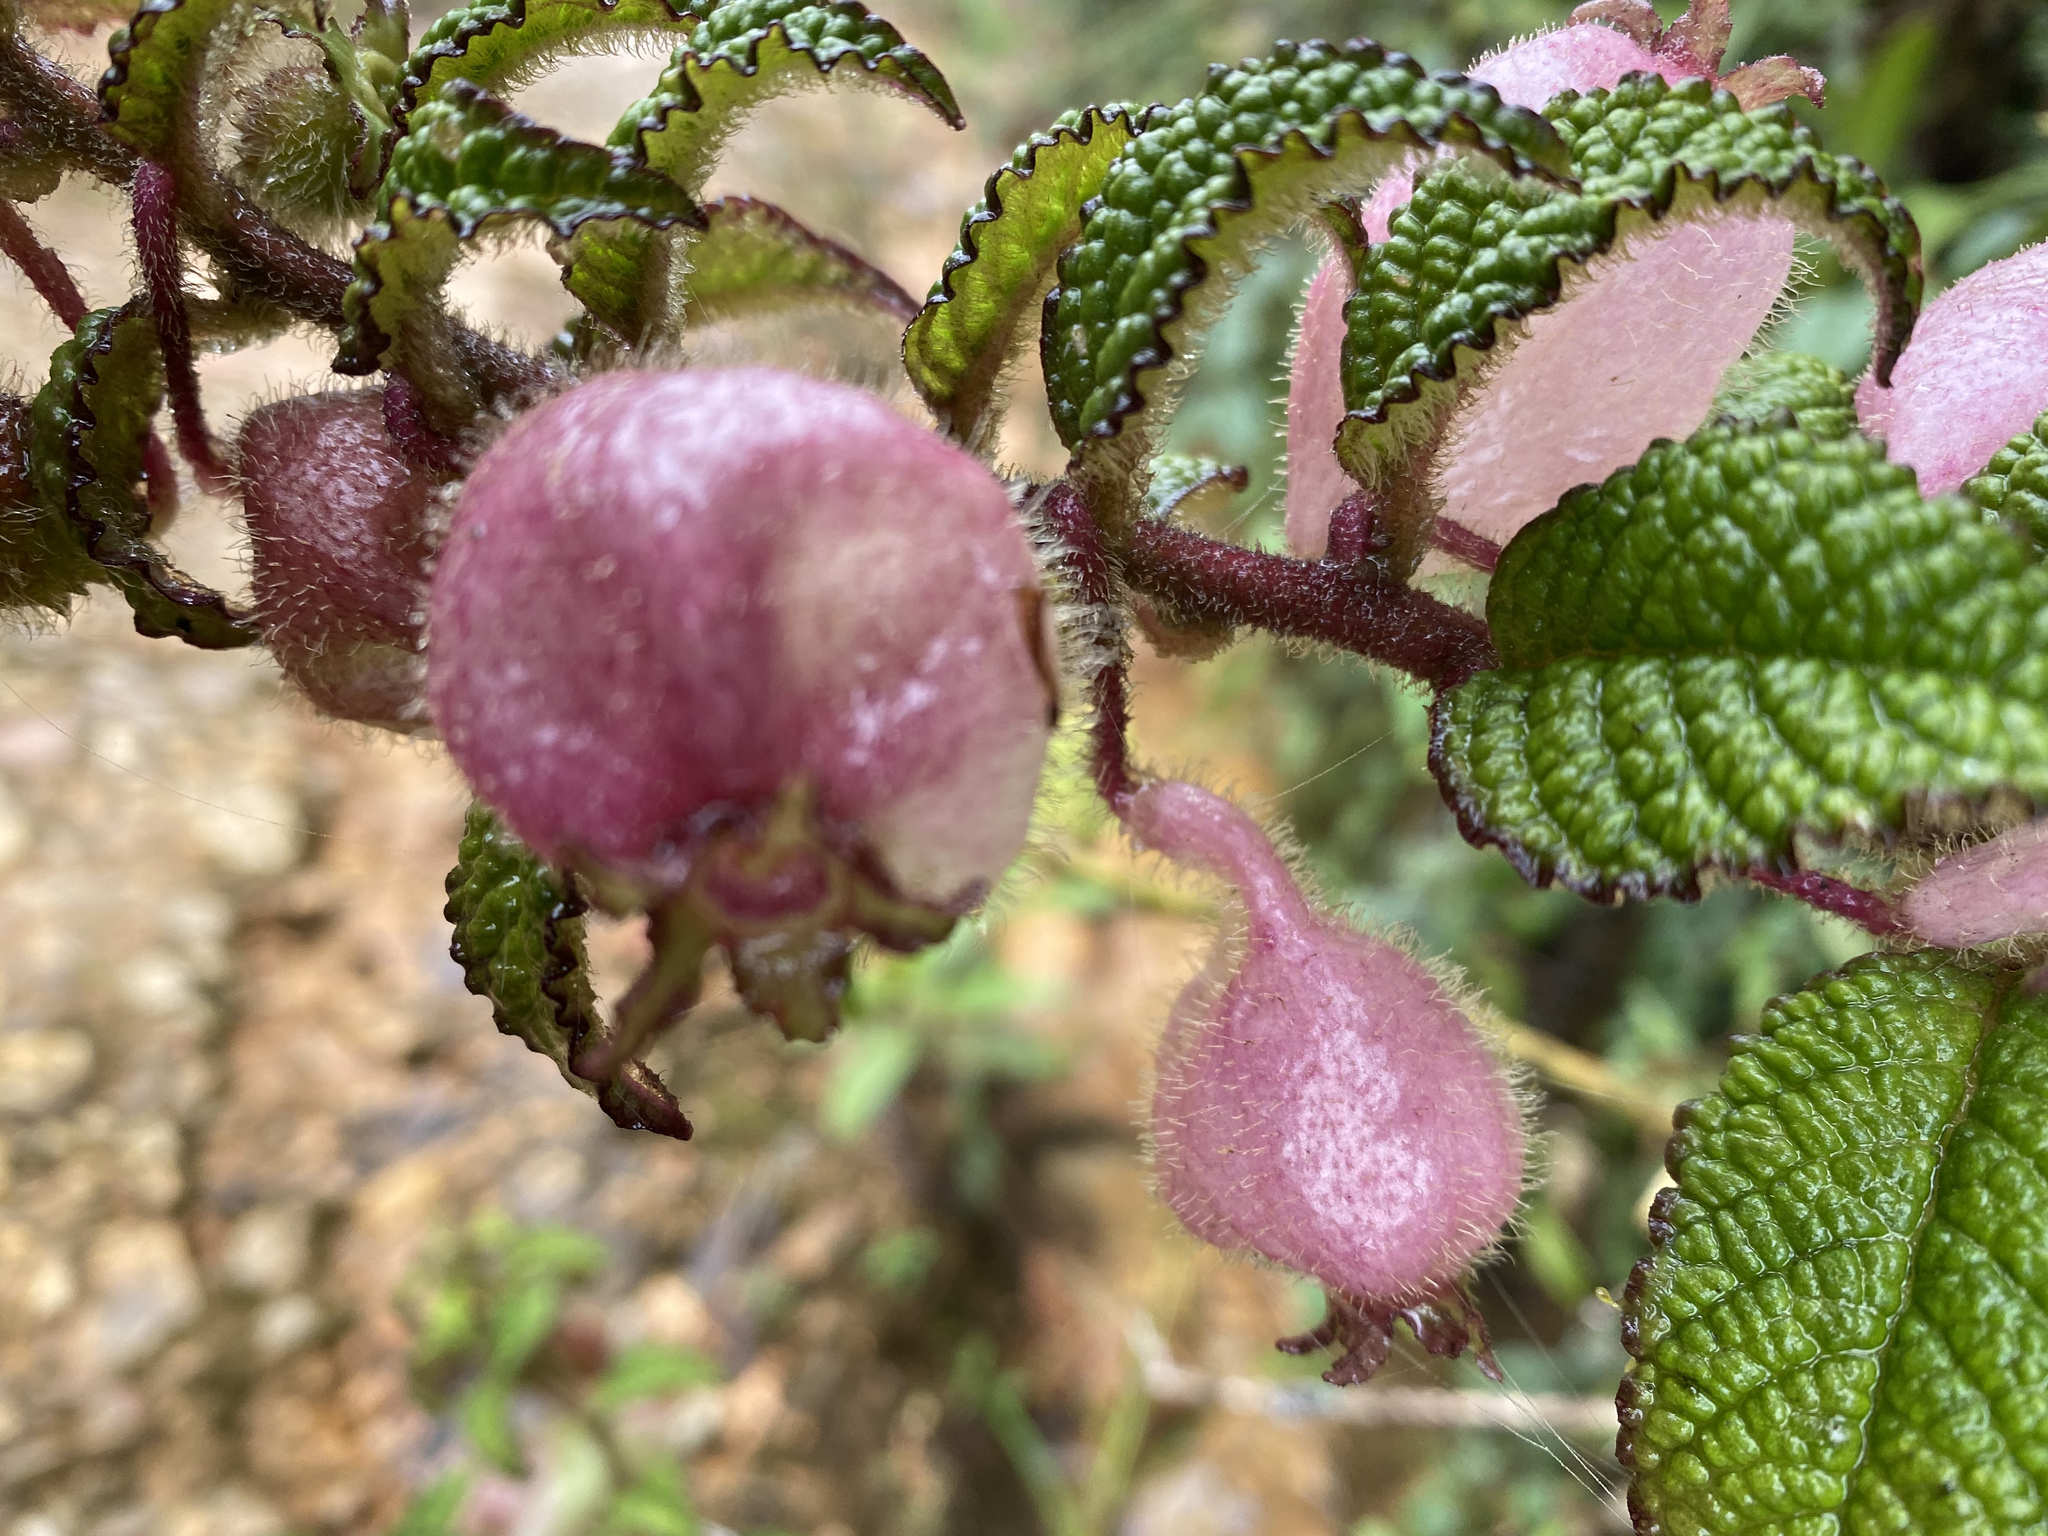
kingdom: Plantae
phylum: Tracheophyta
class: Magnoliopsida
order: Asterales
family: Campanulaceae
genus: Burmeistera
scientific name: Burmeistera bullatifolia
